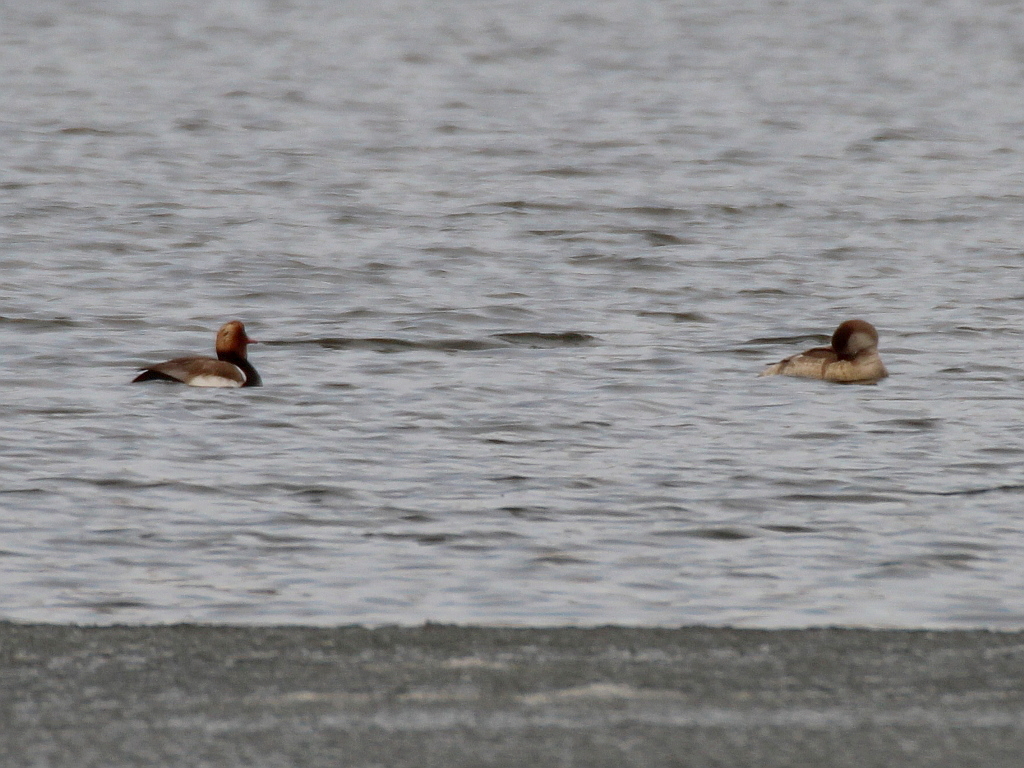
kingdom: Animalia
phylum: Chordata
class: Aves
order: Anseriformes
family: Anatidae
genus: Netta
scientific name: Netta rufina
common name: Red-crested pochard
